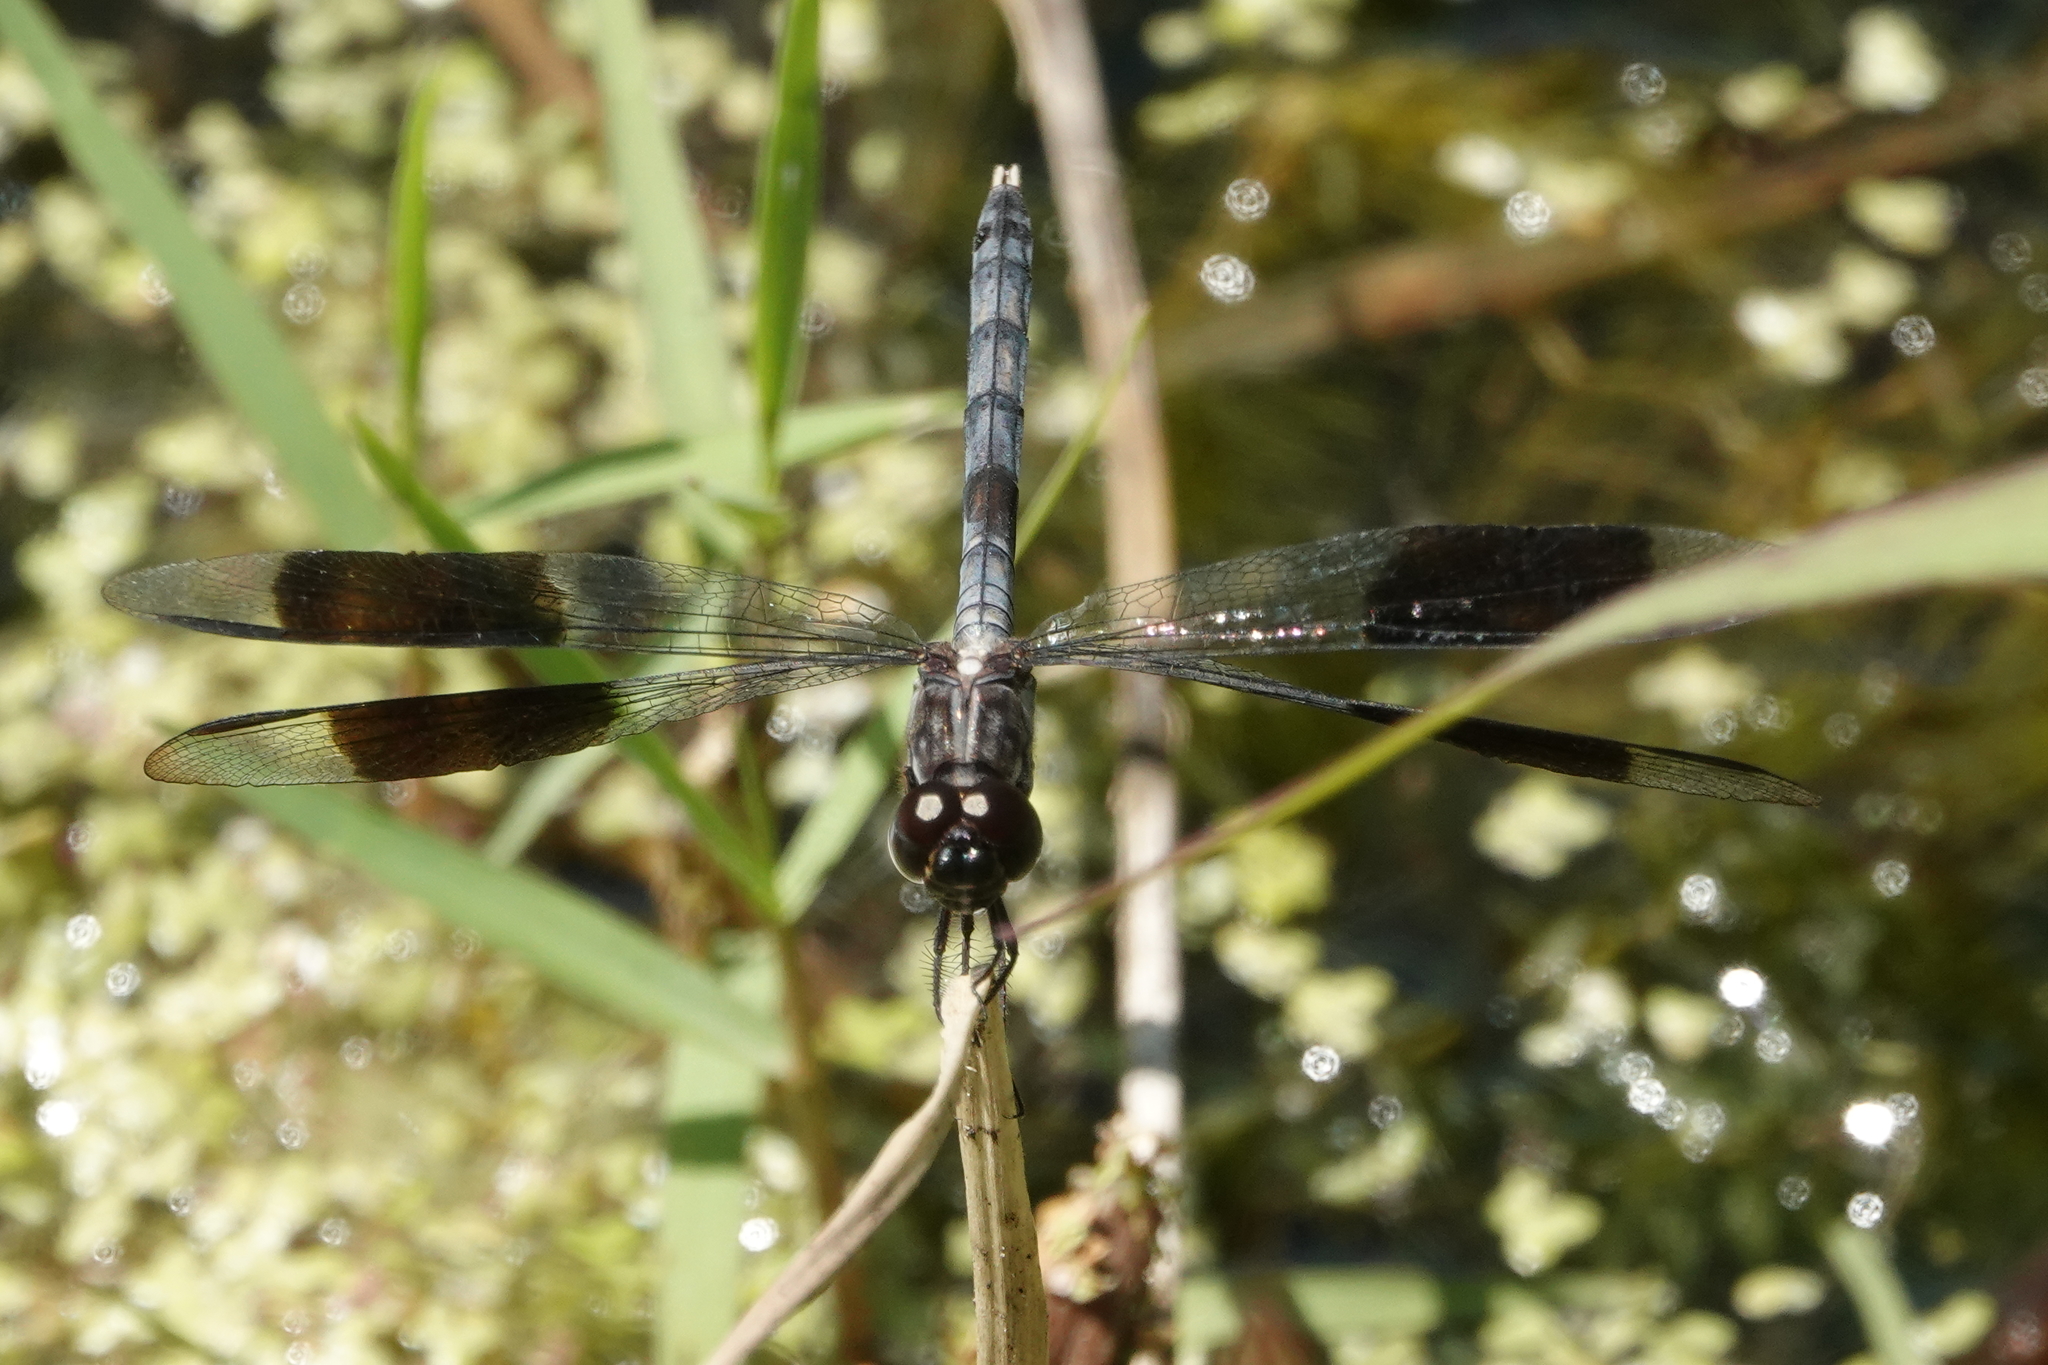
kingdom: Animalia
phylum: Arthropoda
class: Insecta
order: Odonata
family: Libellulidae
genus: Erythrodiplax
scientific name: Erythrodiplax umbrata
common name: Band-winged dragonlet
